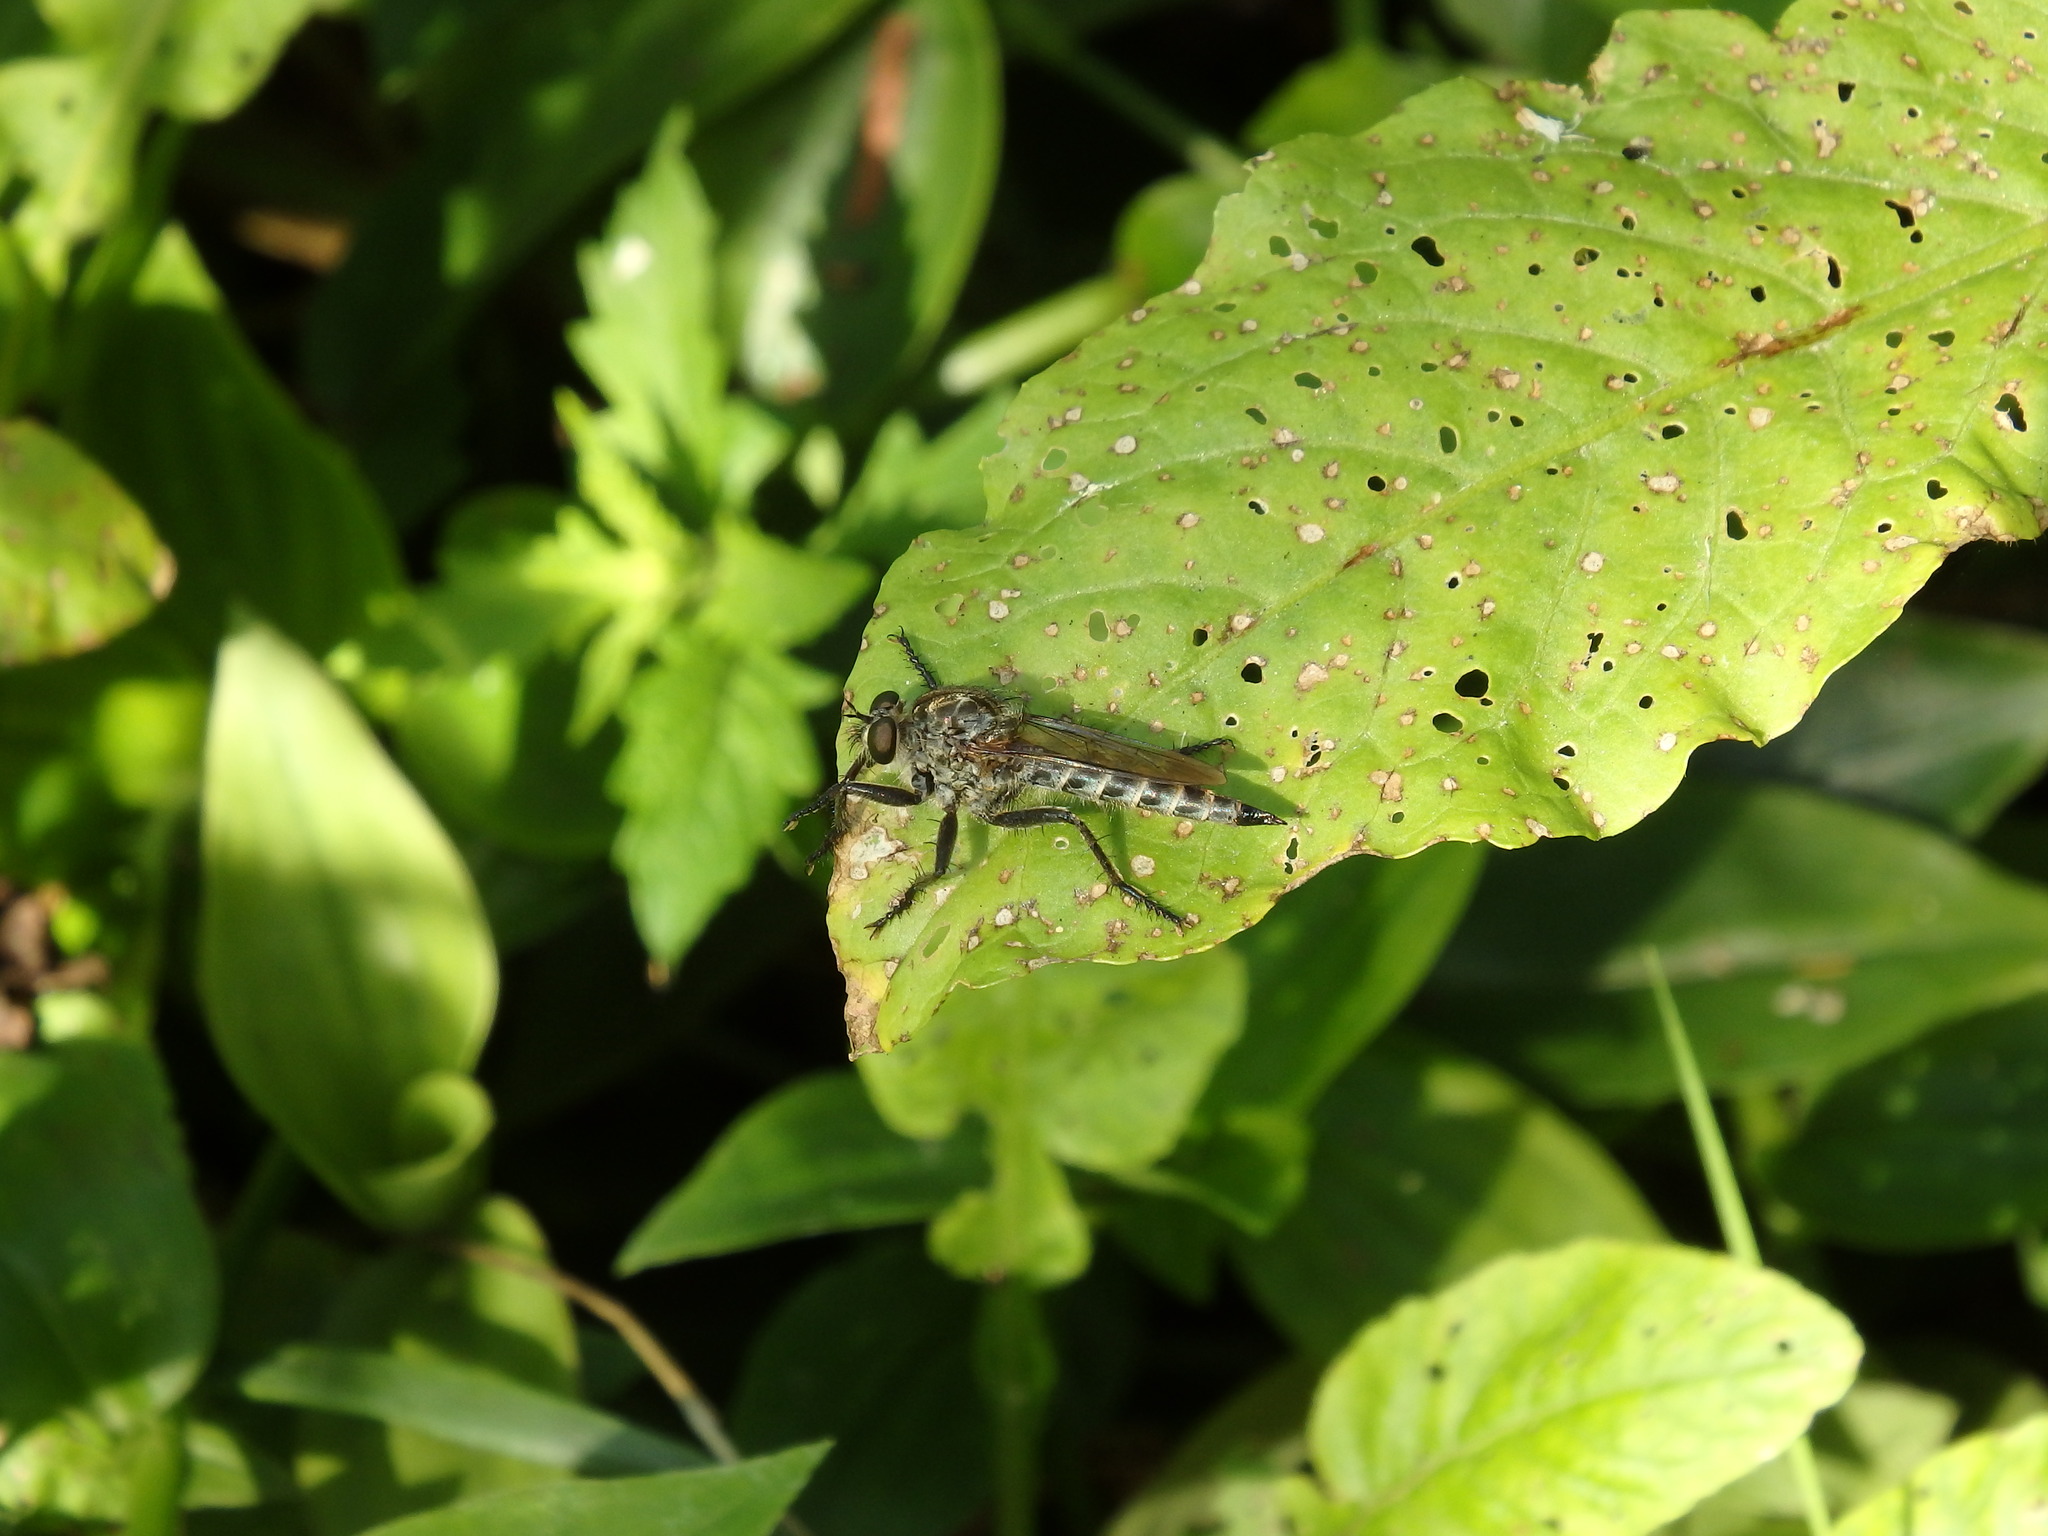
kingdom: Animalia
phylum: Arthropoda
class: Insecta
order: Diptera
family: Asilidae
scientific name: Asilidae
